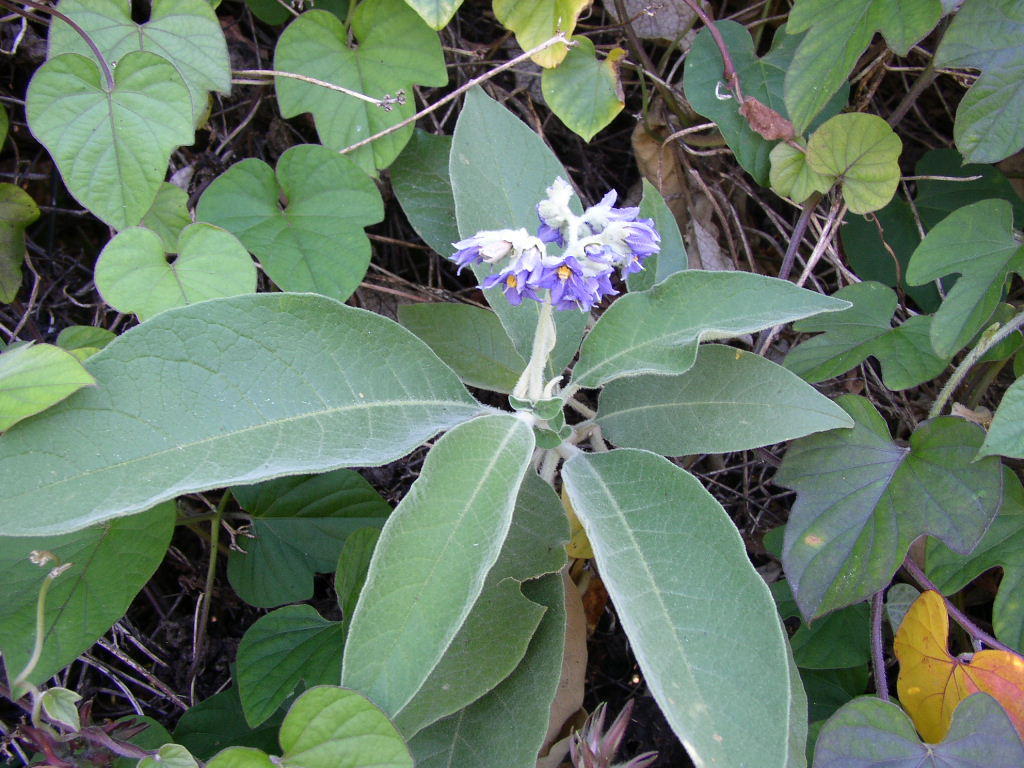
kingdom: Plantae
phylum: Tracheophyta
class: Magnoliopsida
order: Solanales
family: Solanaceae
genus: Solanum
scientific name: Solanum mauritianum
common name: Earleaf nightshade
